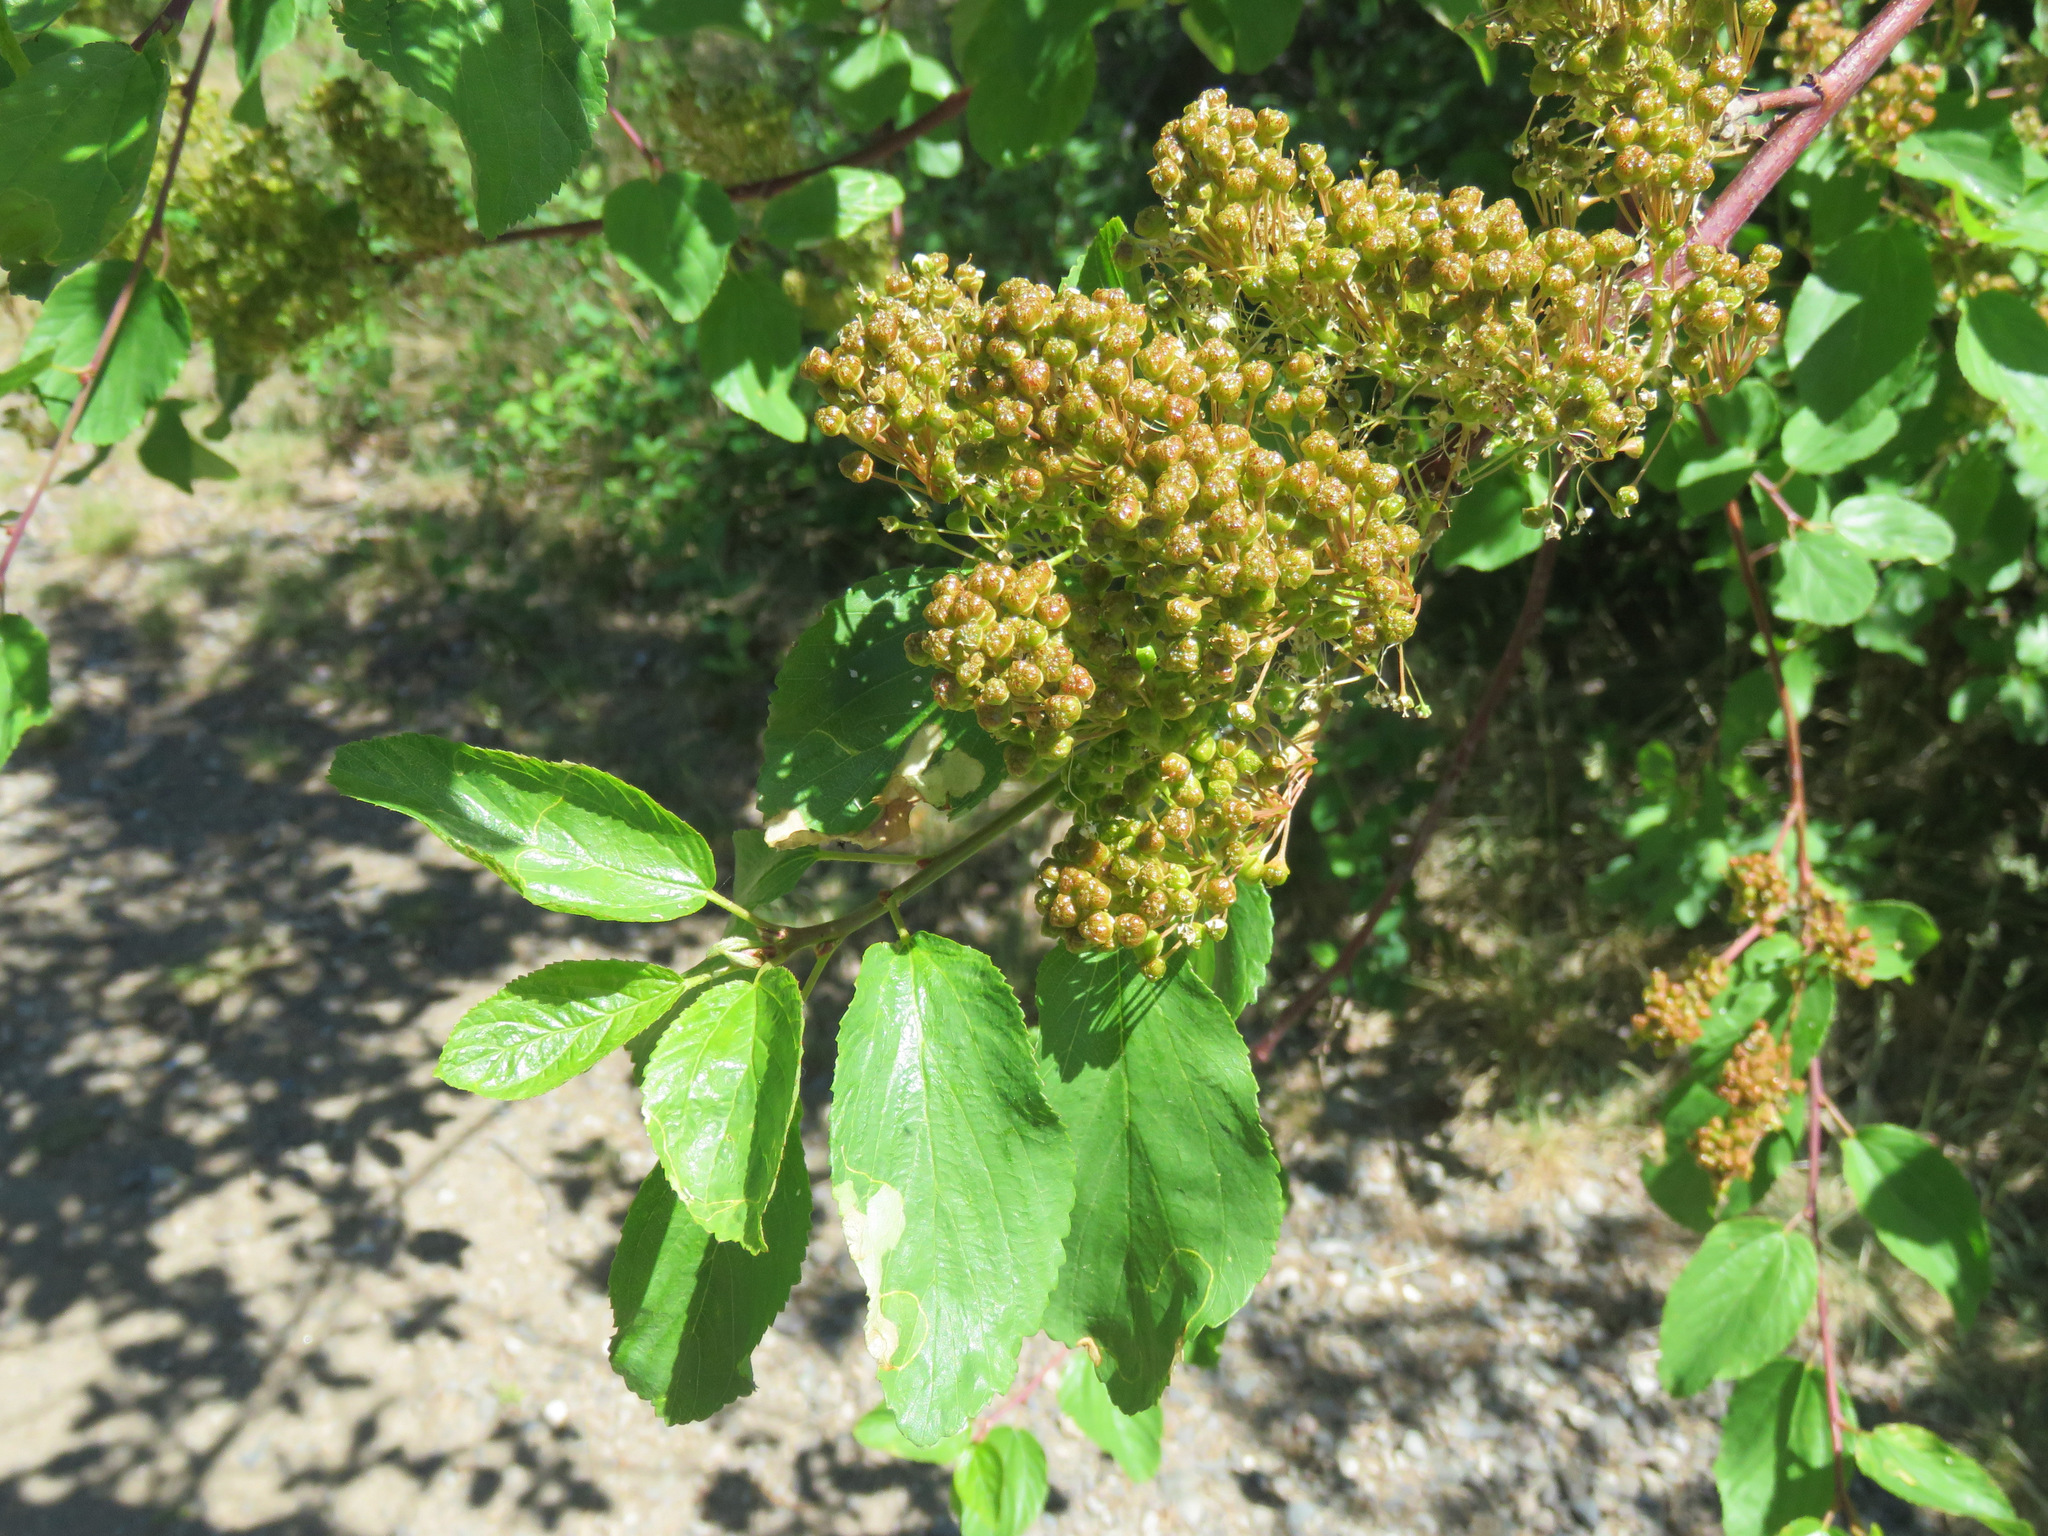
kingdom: Plantae
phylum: Tracheophyta
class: Magnoliopsida
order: Rosales
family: Rhamnaceae
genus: Ceanothus
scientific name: Ceanothus sanguineus
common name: Teatree
